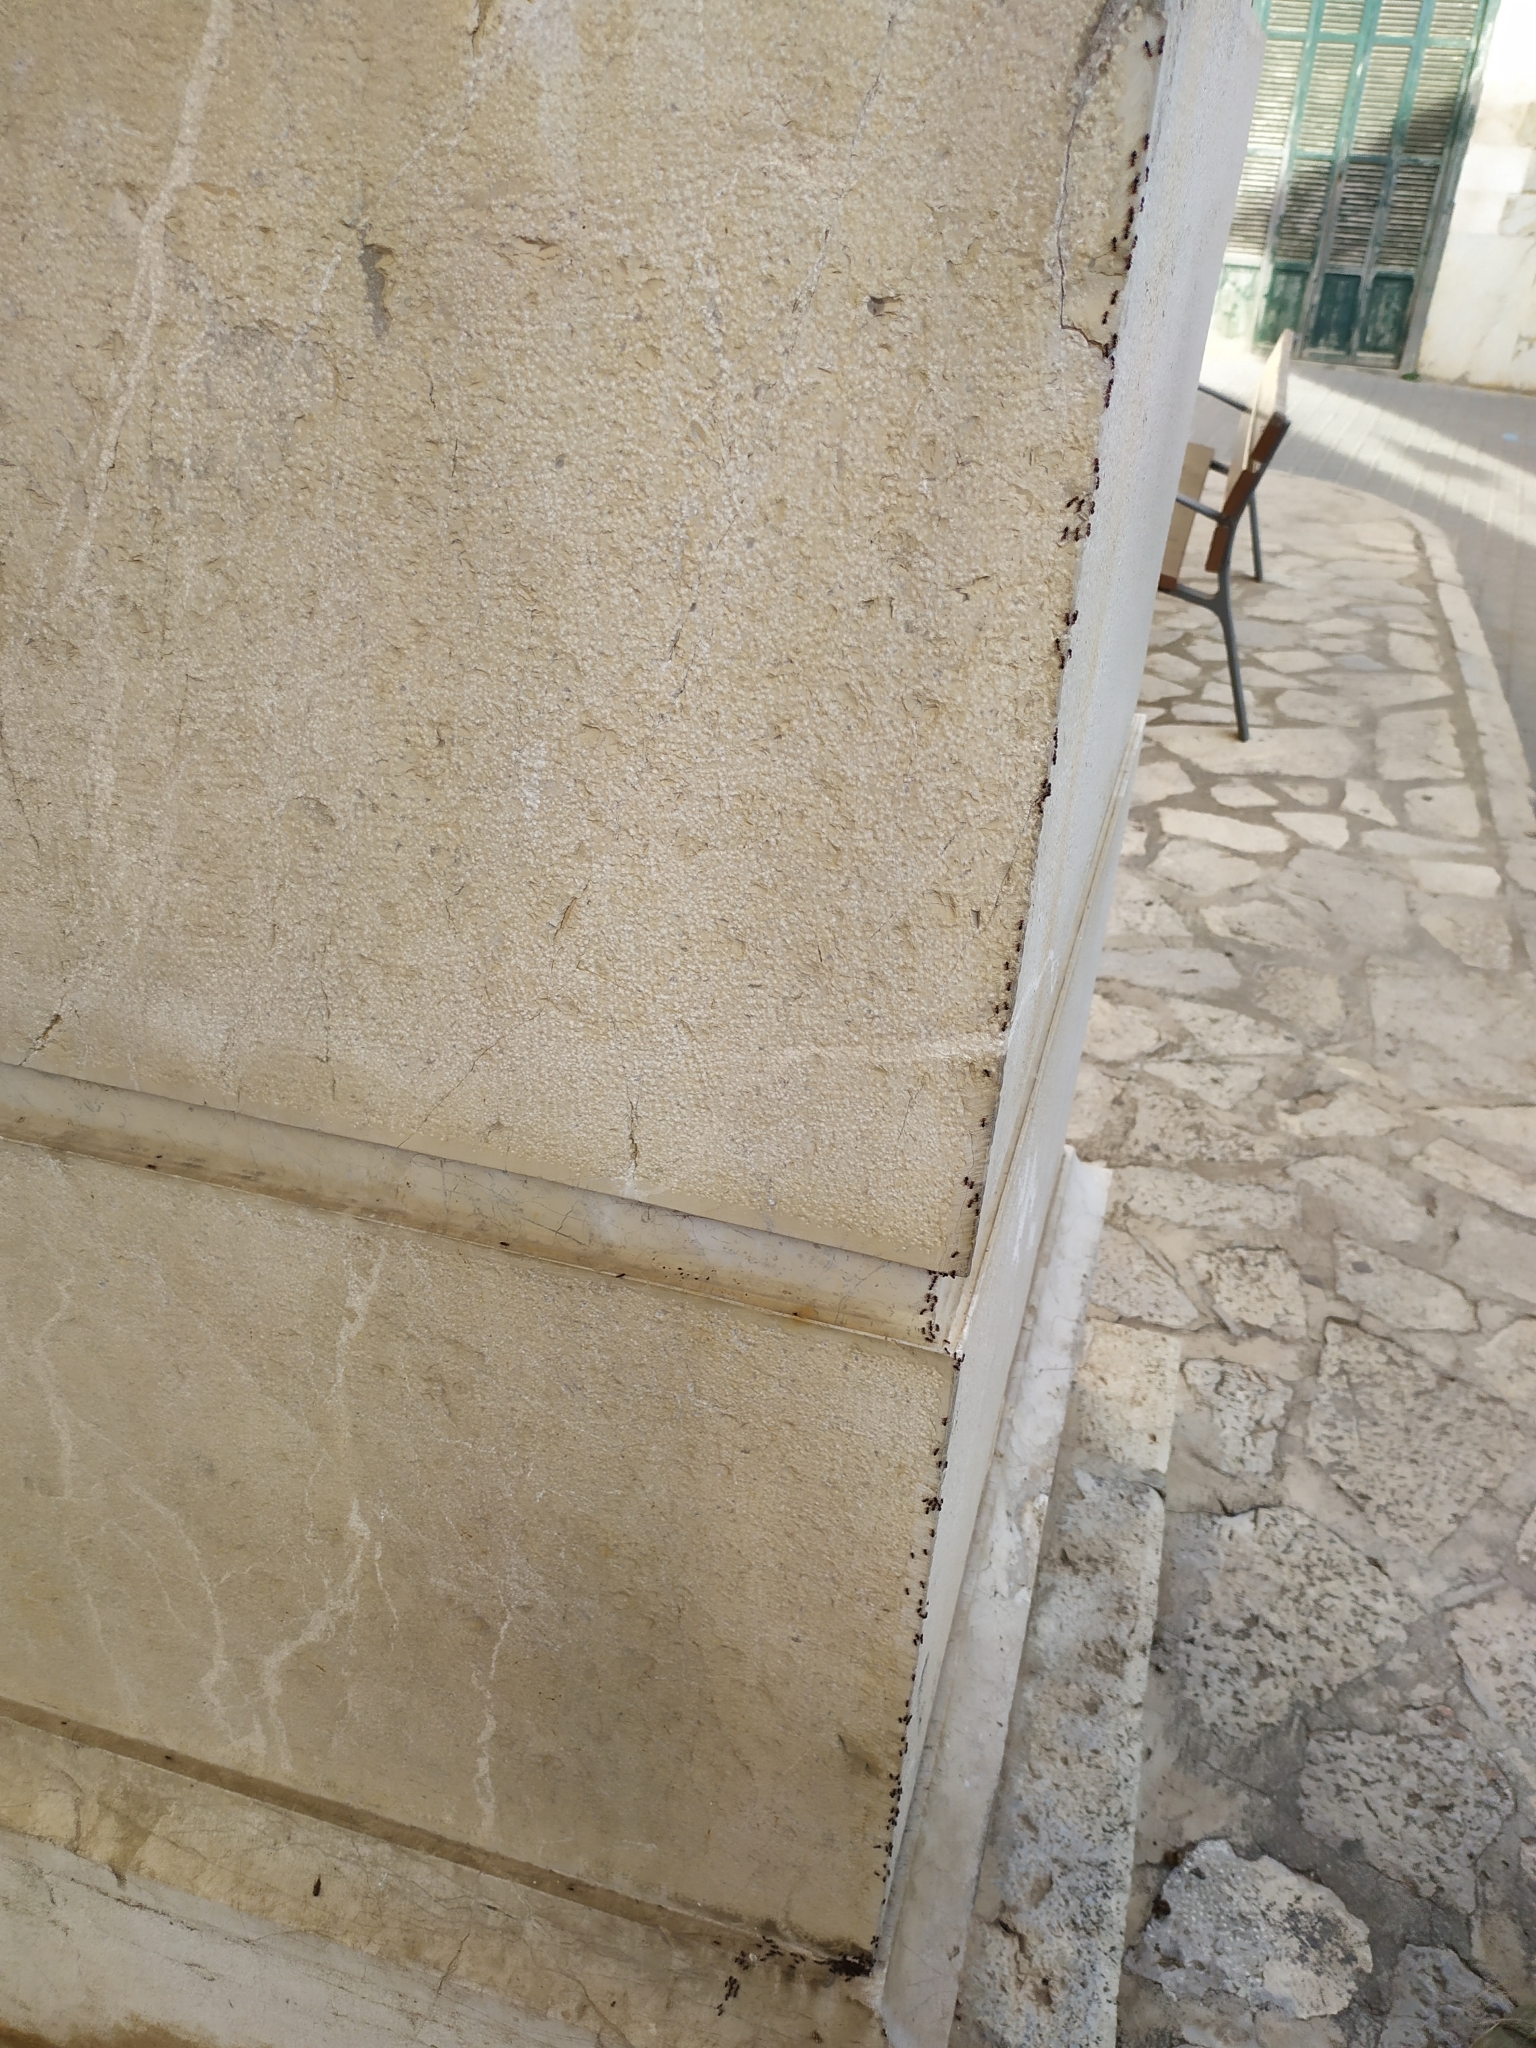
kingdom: Animalia
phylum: Arthropoda
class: Insecta
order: Hymenoptera
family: Formicidae
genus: Crematogaster
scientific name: Crematogaster scutellaris
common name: Fourmi du liège
